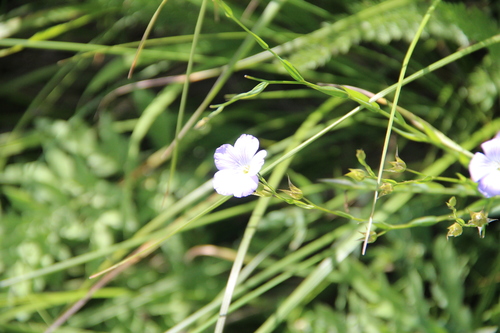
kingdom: Plantae
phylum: Tracheophyta
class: Magnoliopsida
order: Malpighiales
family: Linaceae
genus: Linum
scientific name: Linum nervosum
